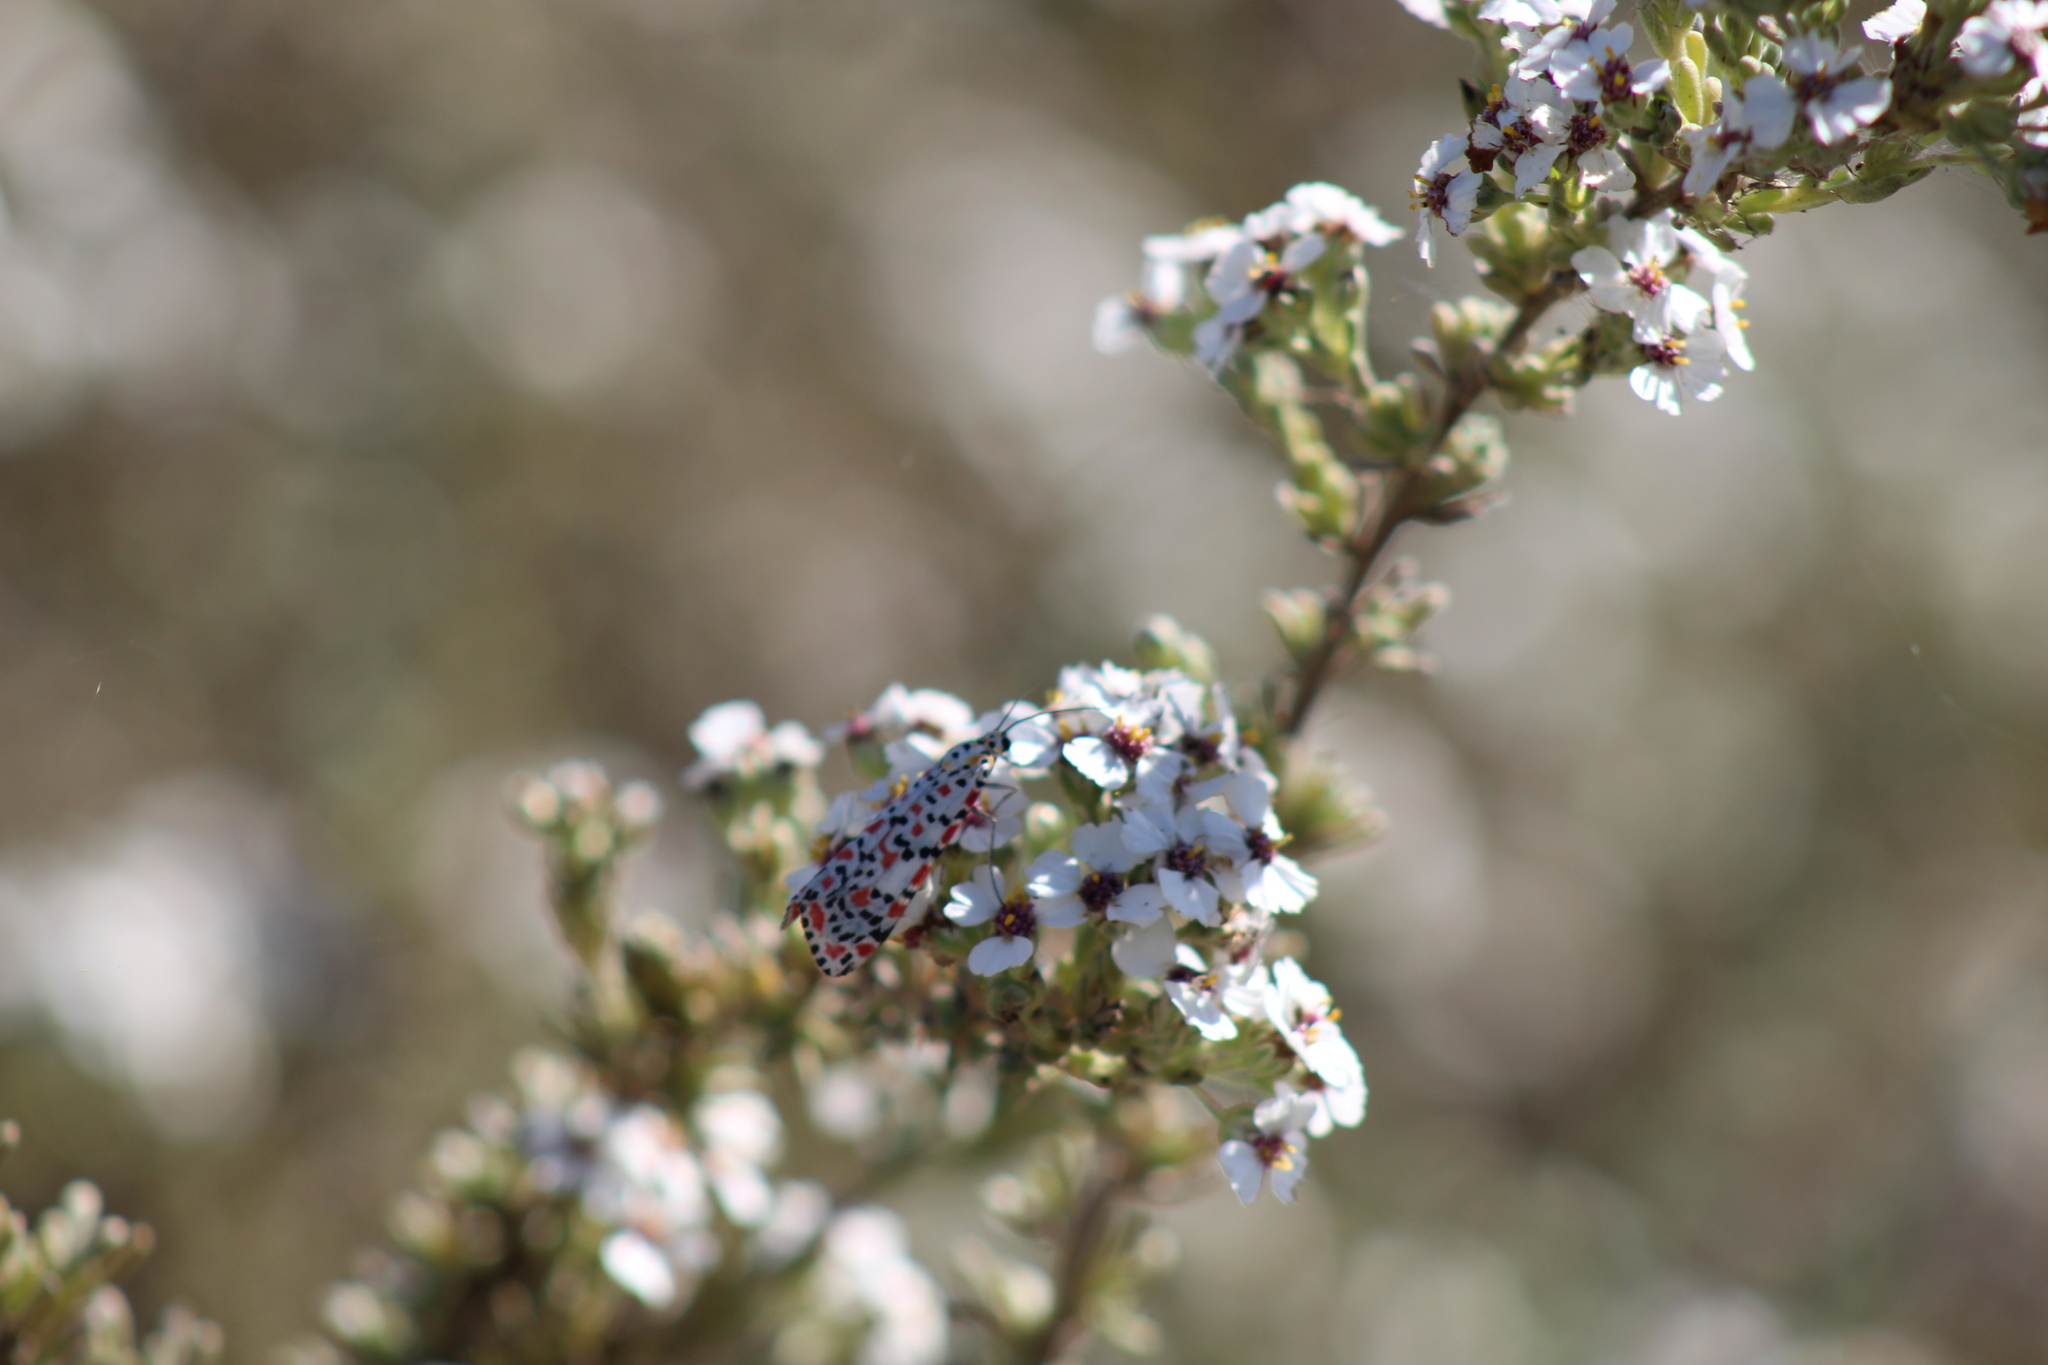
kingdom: Animalia
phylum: Arthropoda
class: Insecta
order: Lepidoptera
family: Erebidae
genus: Utetheisa
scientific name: Utetheisa pulchella
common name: Crimson speckled
